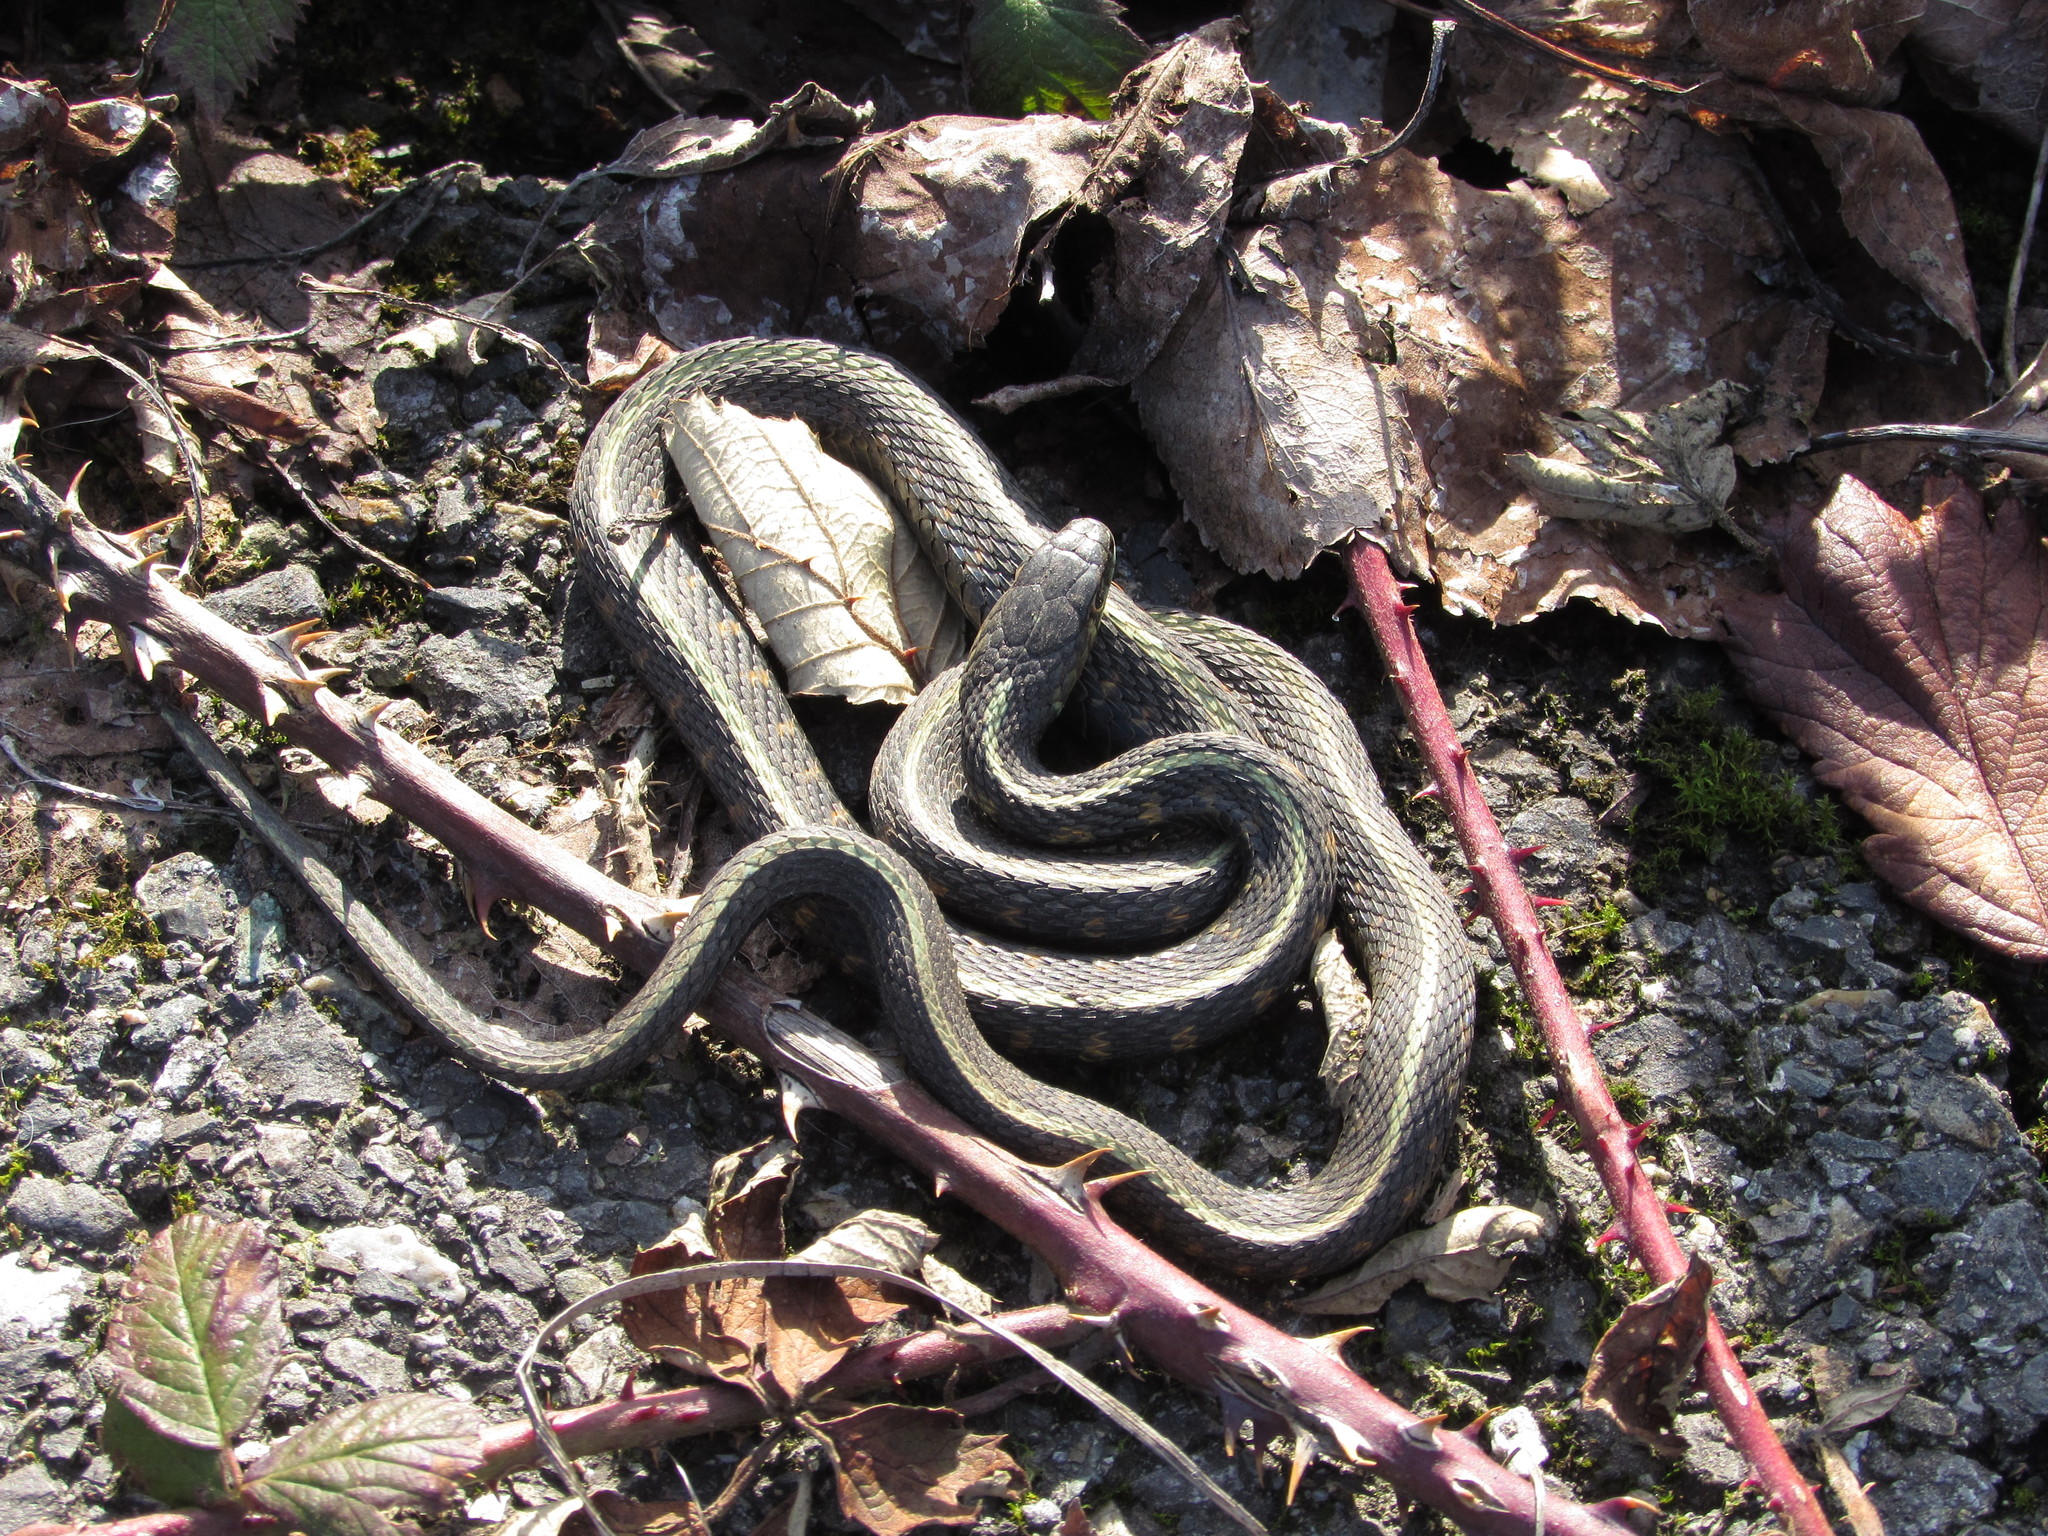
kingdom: Animalia
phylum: Chordata
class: Squamata
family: Colubridae
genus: Thamnophis
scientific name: Thamnophis sirtalis
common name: Common garter snake
